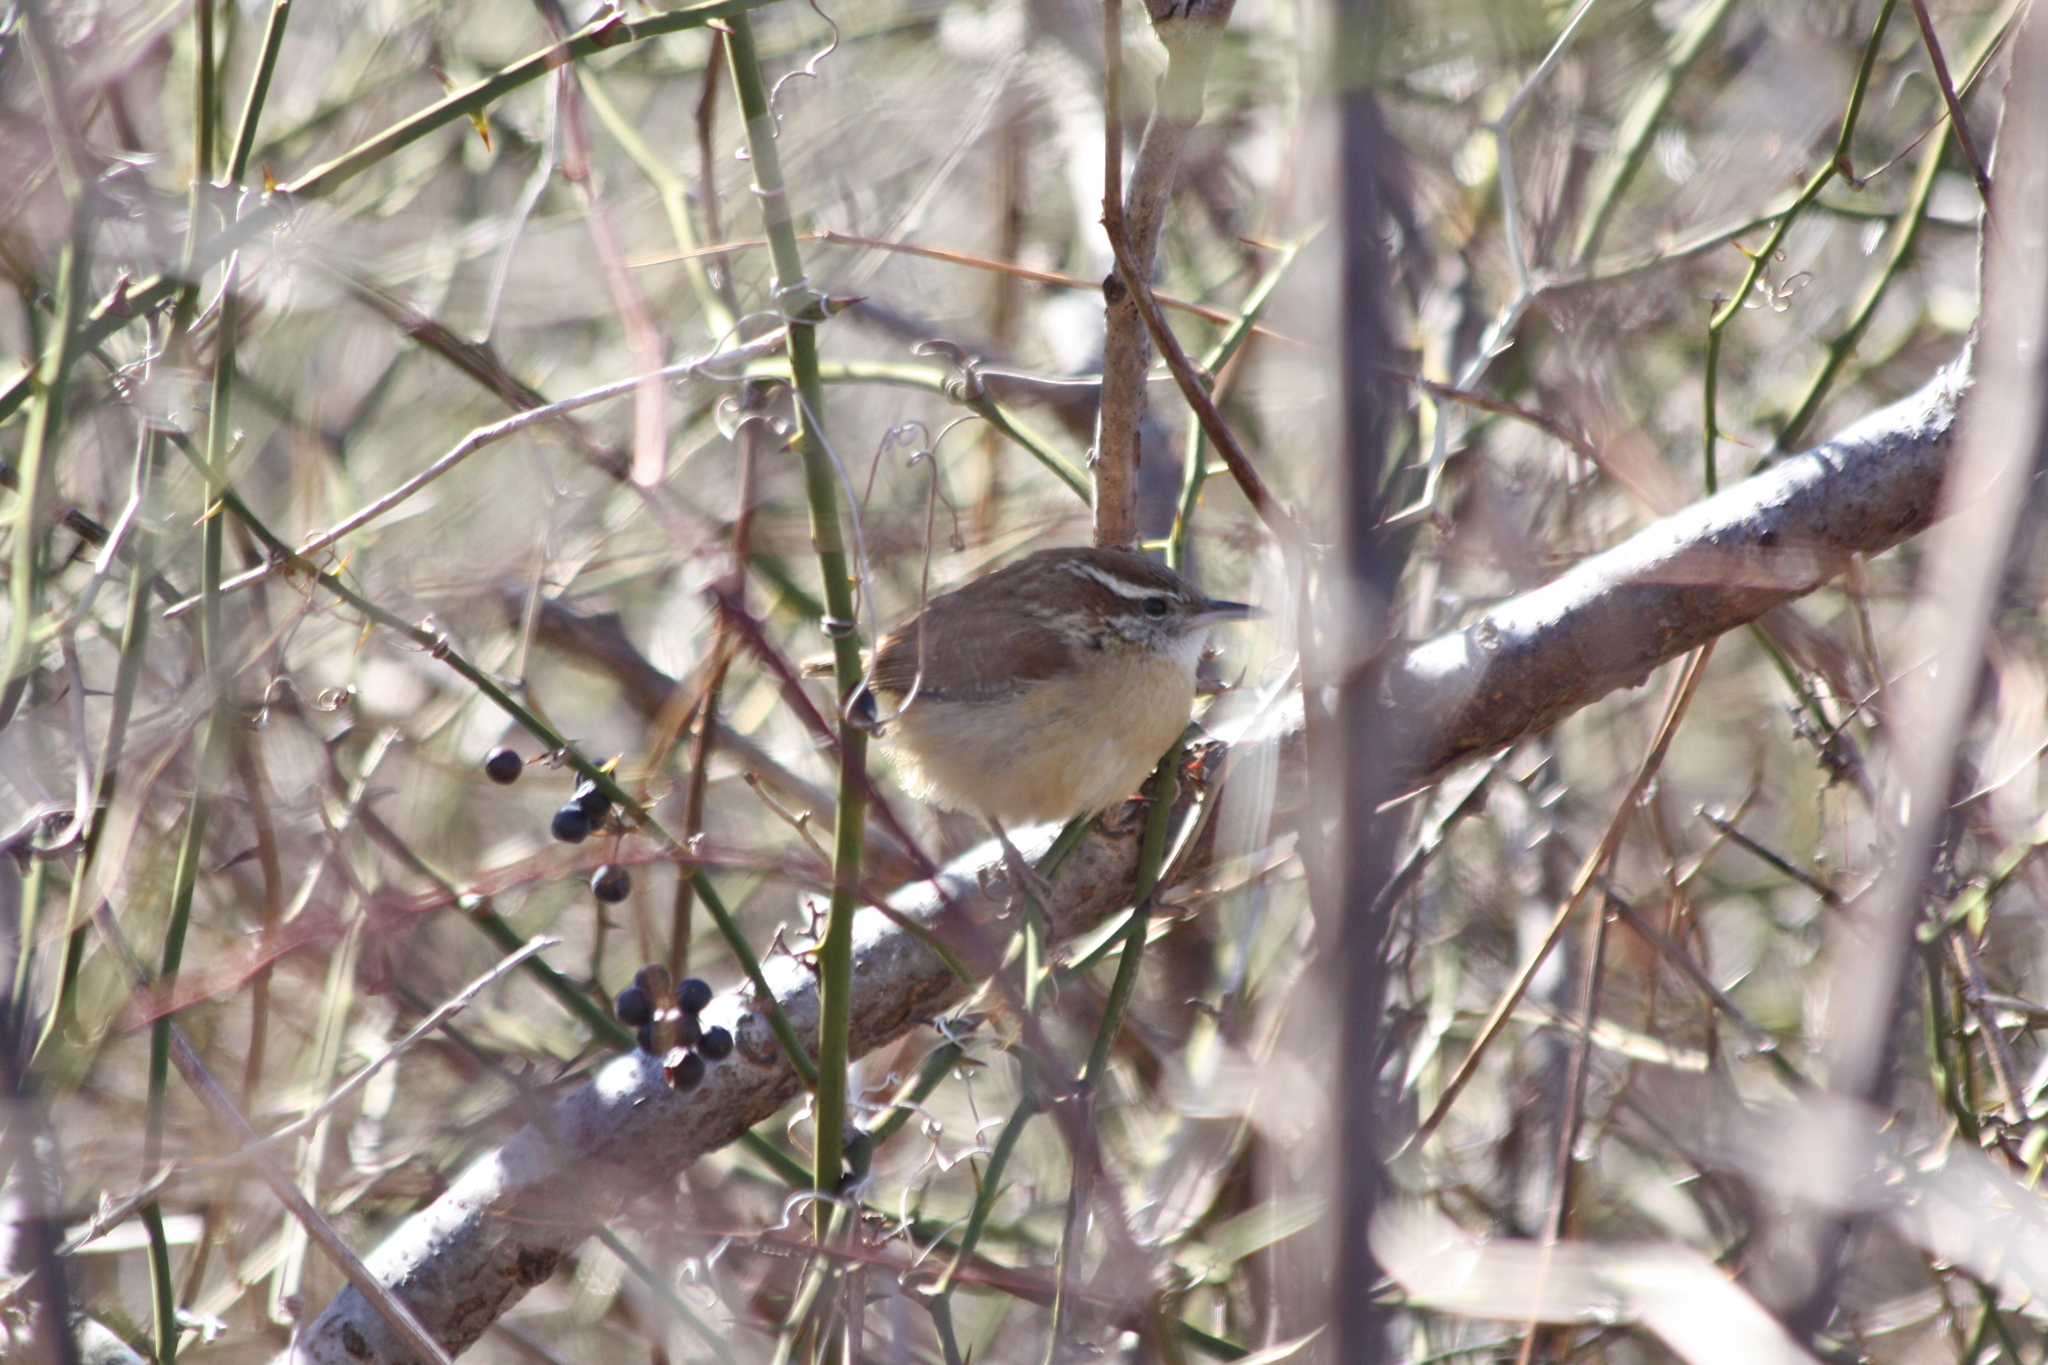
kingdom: Animalia
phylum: Chordata
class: Aves
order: Passeriformes
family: Troglodytidae
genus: Thryothorus
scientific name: Thryothorus ludovicianus
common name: Carolina wren
